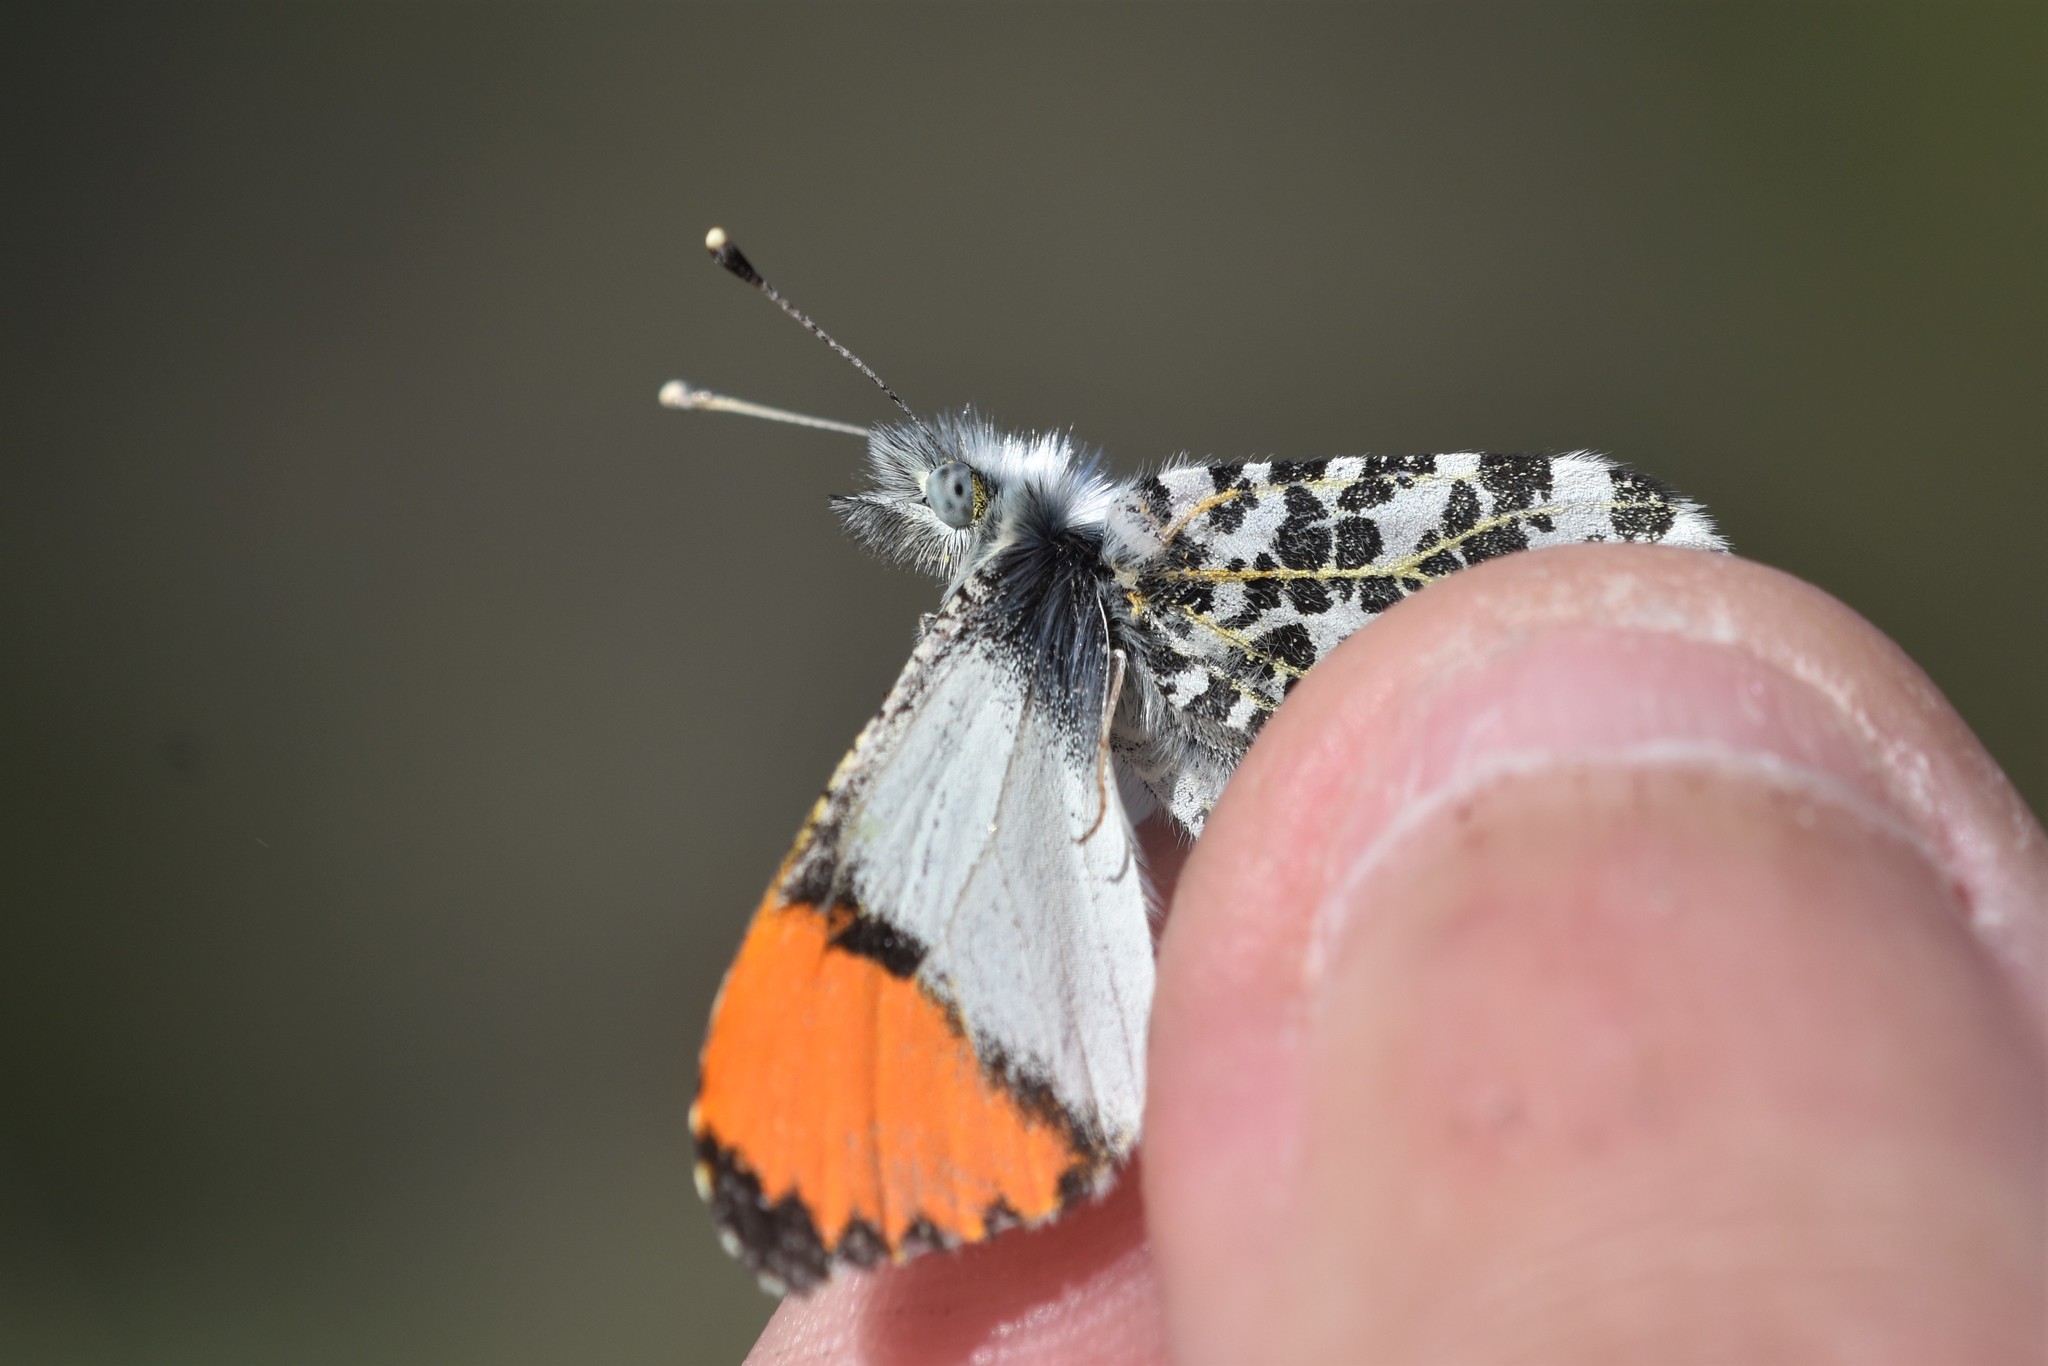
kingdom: Animalia
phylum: Arthropoda
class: Insecta
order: Lepidoptera
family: Pieridae
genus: Anthocharis
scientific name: Anthocharis julia
